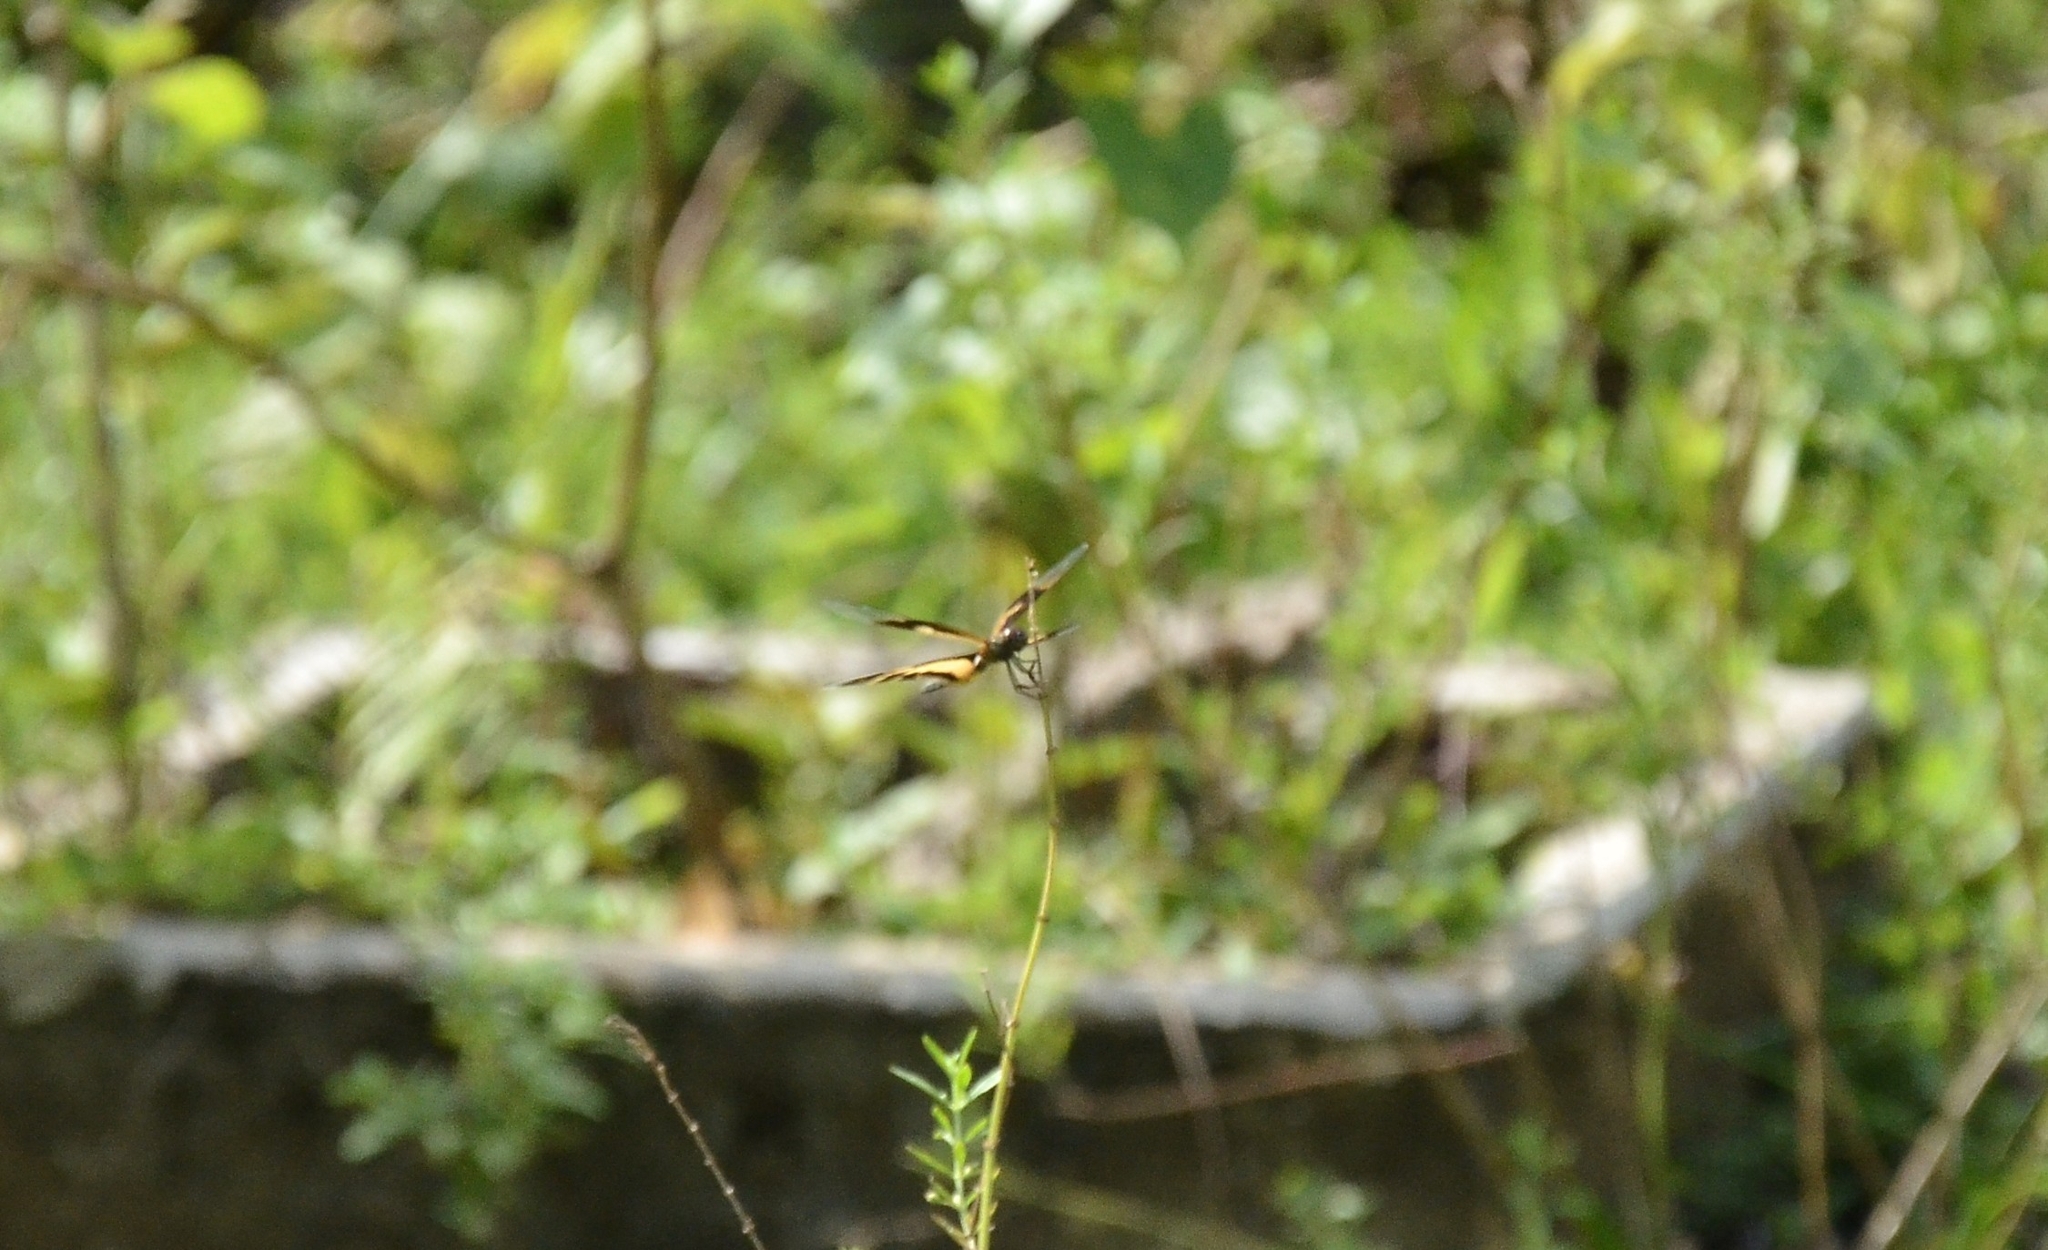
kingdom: Animalia
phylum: Arthropoda
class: Insecta
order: Odonata
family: Libellulidae
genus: Rhyothemis
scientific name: Rhyothemis variegata
